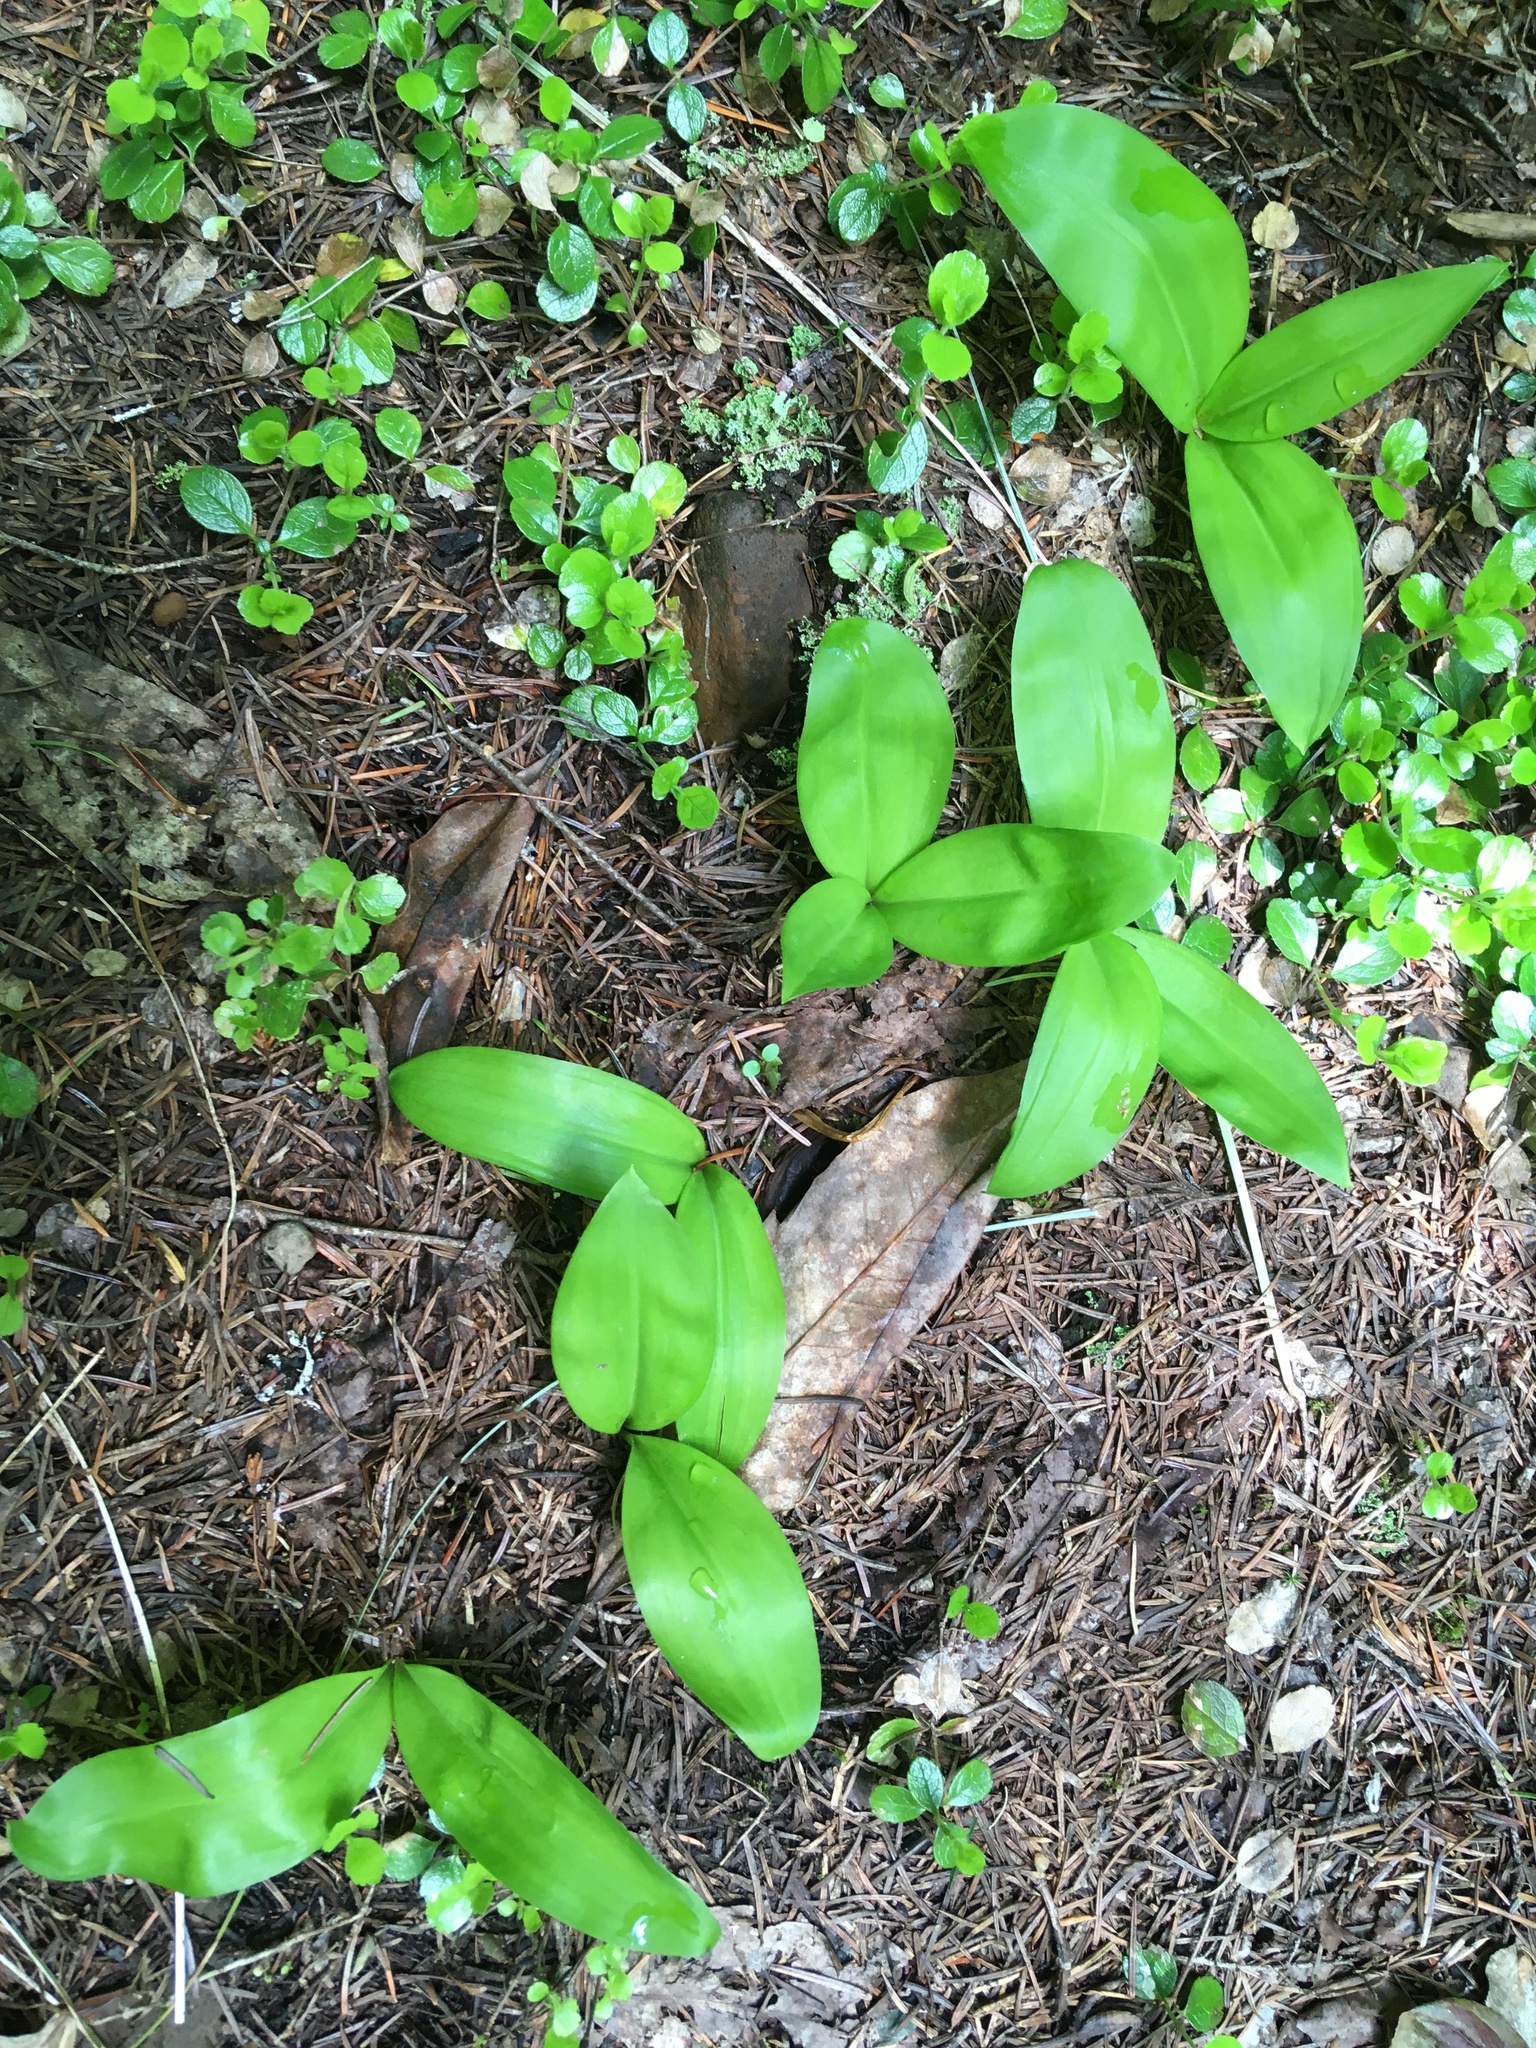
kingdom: Plantae
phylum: Tracheophyta
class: Liliopsida
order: Liliales
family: Liliaceae
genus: Clintonia
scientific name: Clintonia uniflora
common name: Queen's cup
